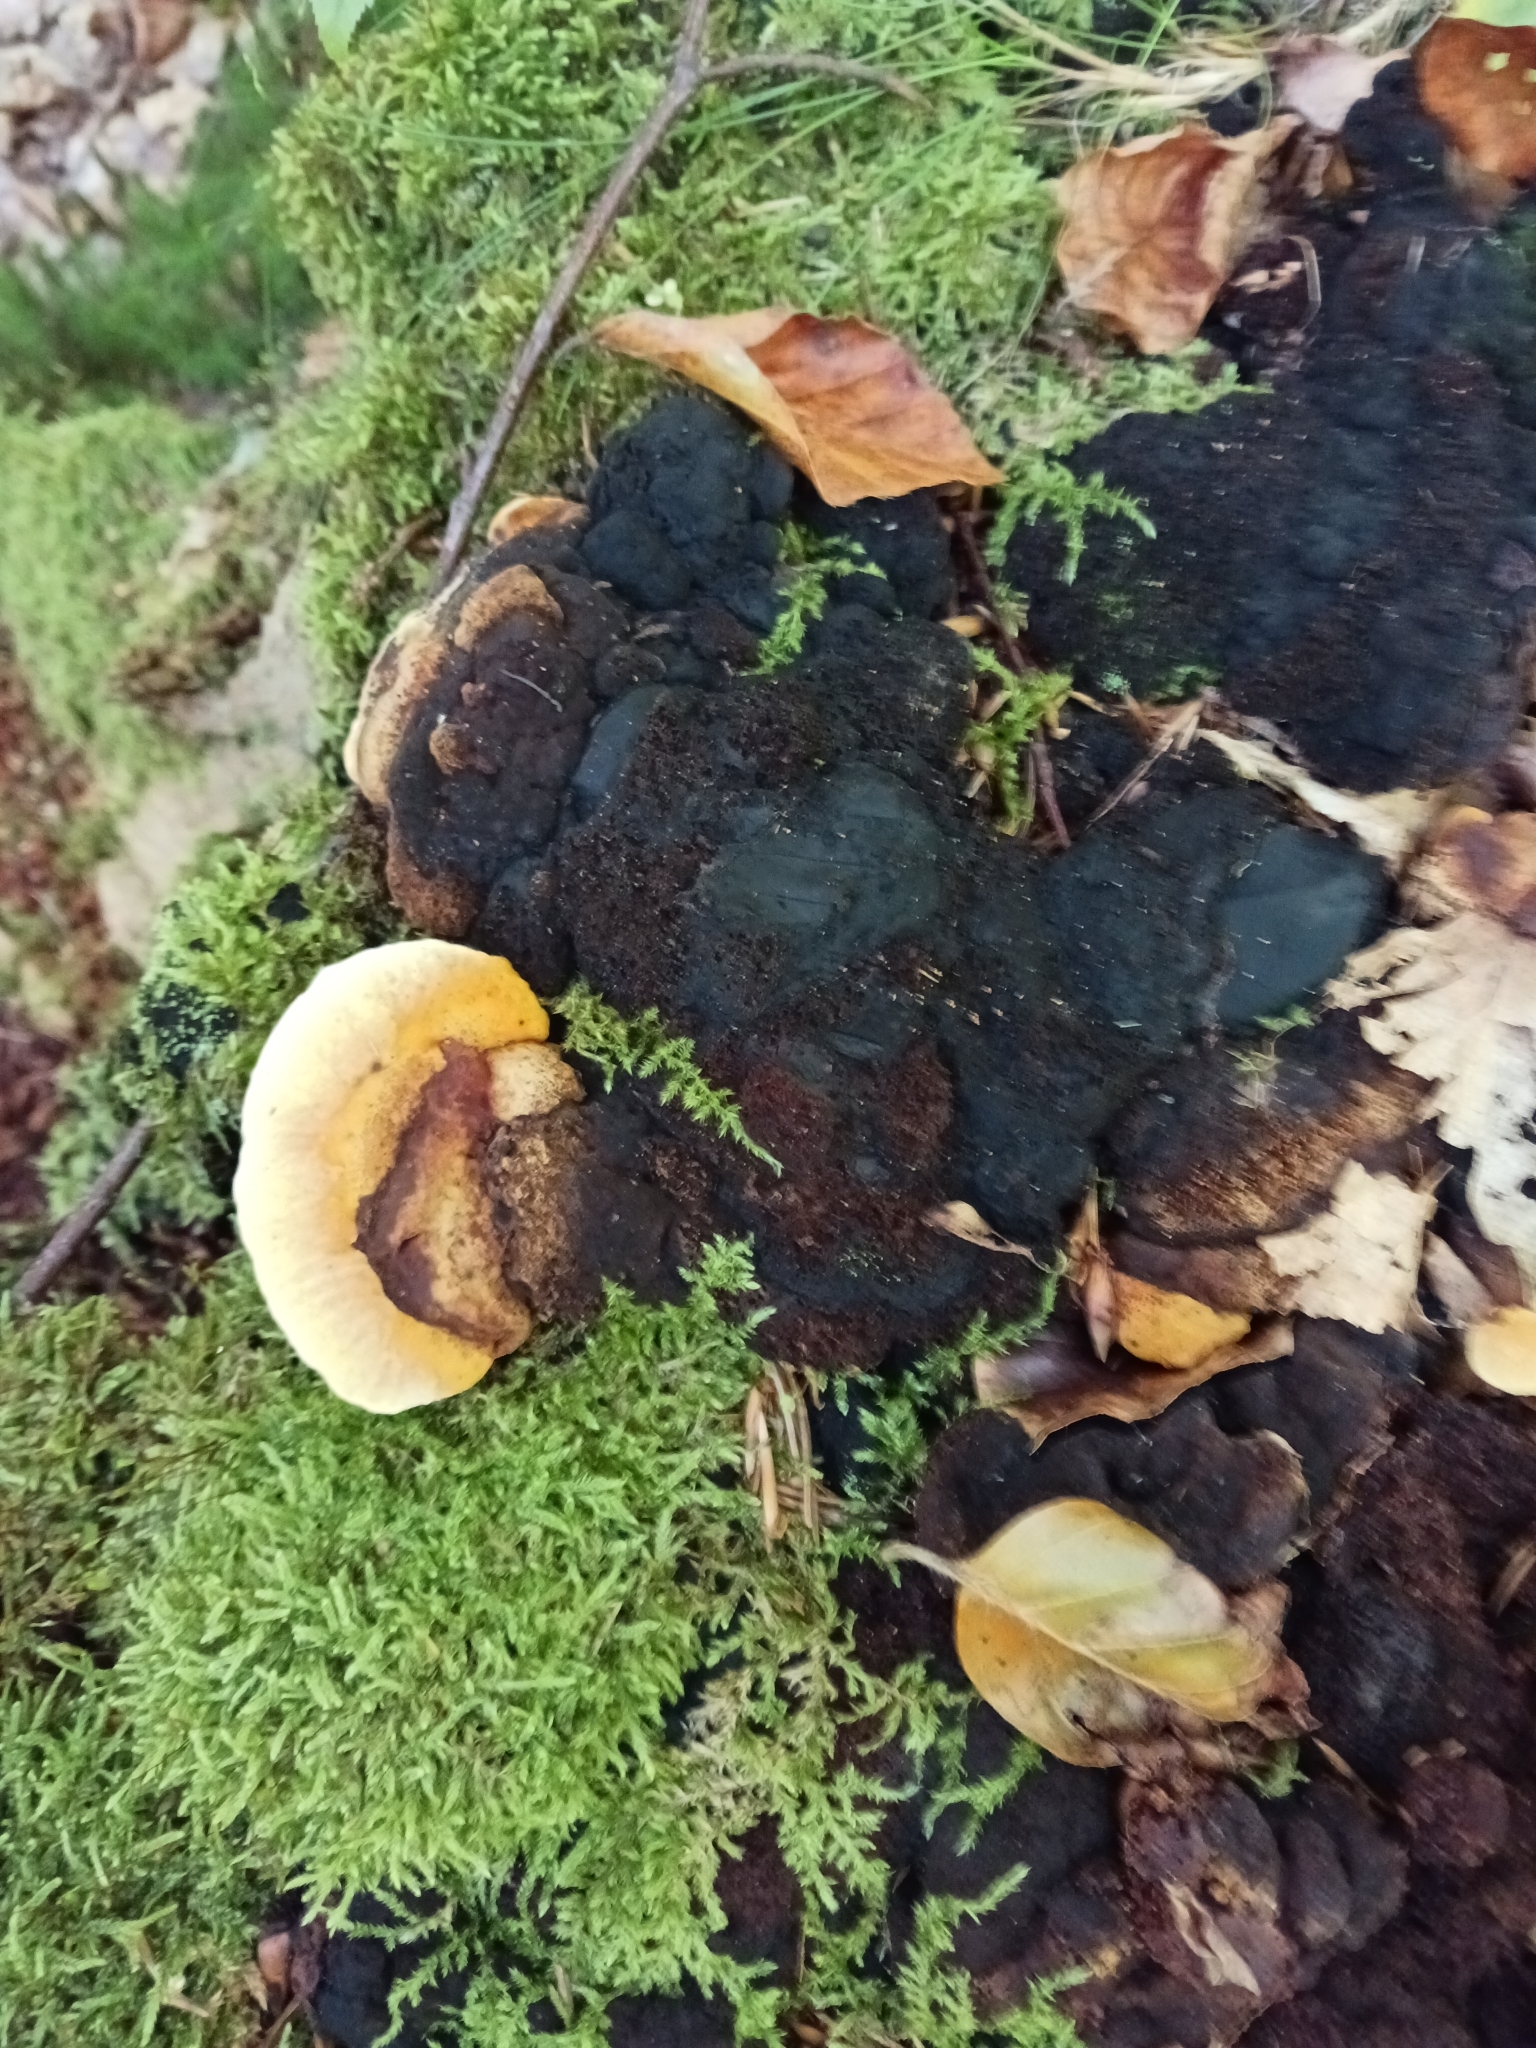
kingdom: Fungi
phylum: Basidiomycota
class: Agaricomycetes
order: Gloeophyllales
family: Gloeophyllaceae
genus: Gloeophyllum
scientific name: Gloeophyllum odoratum
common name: Anise mazegill
